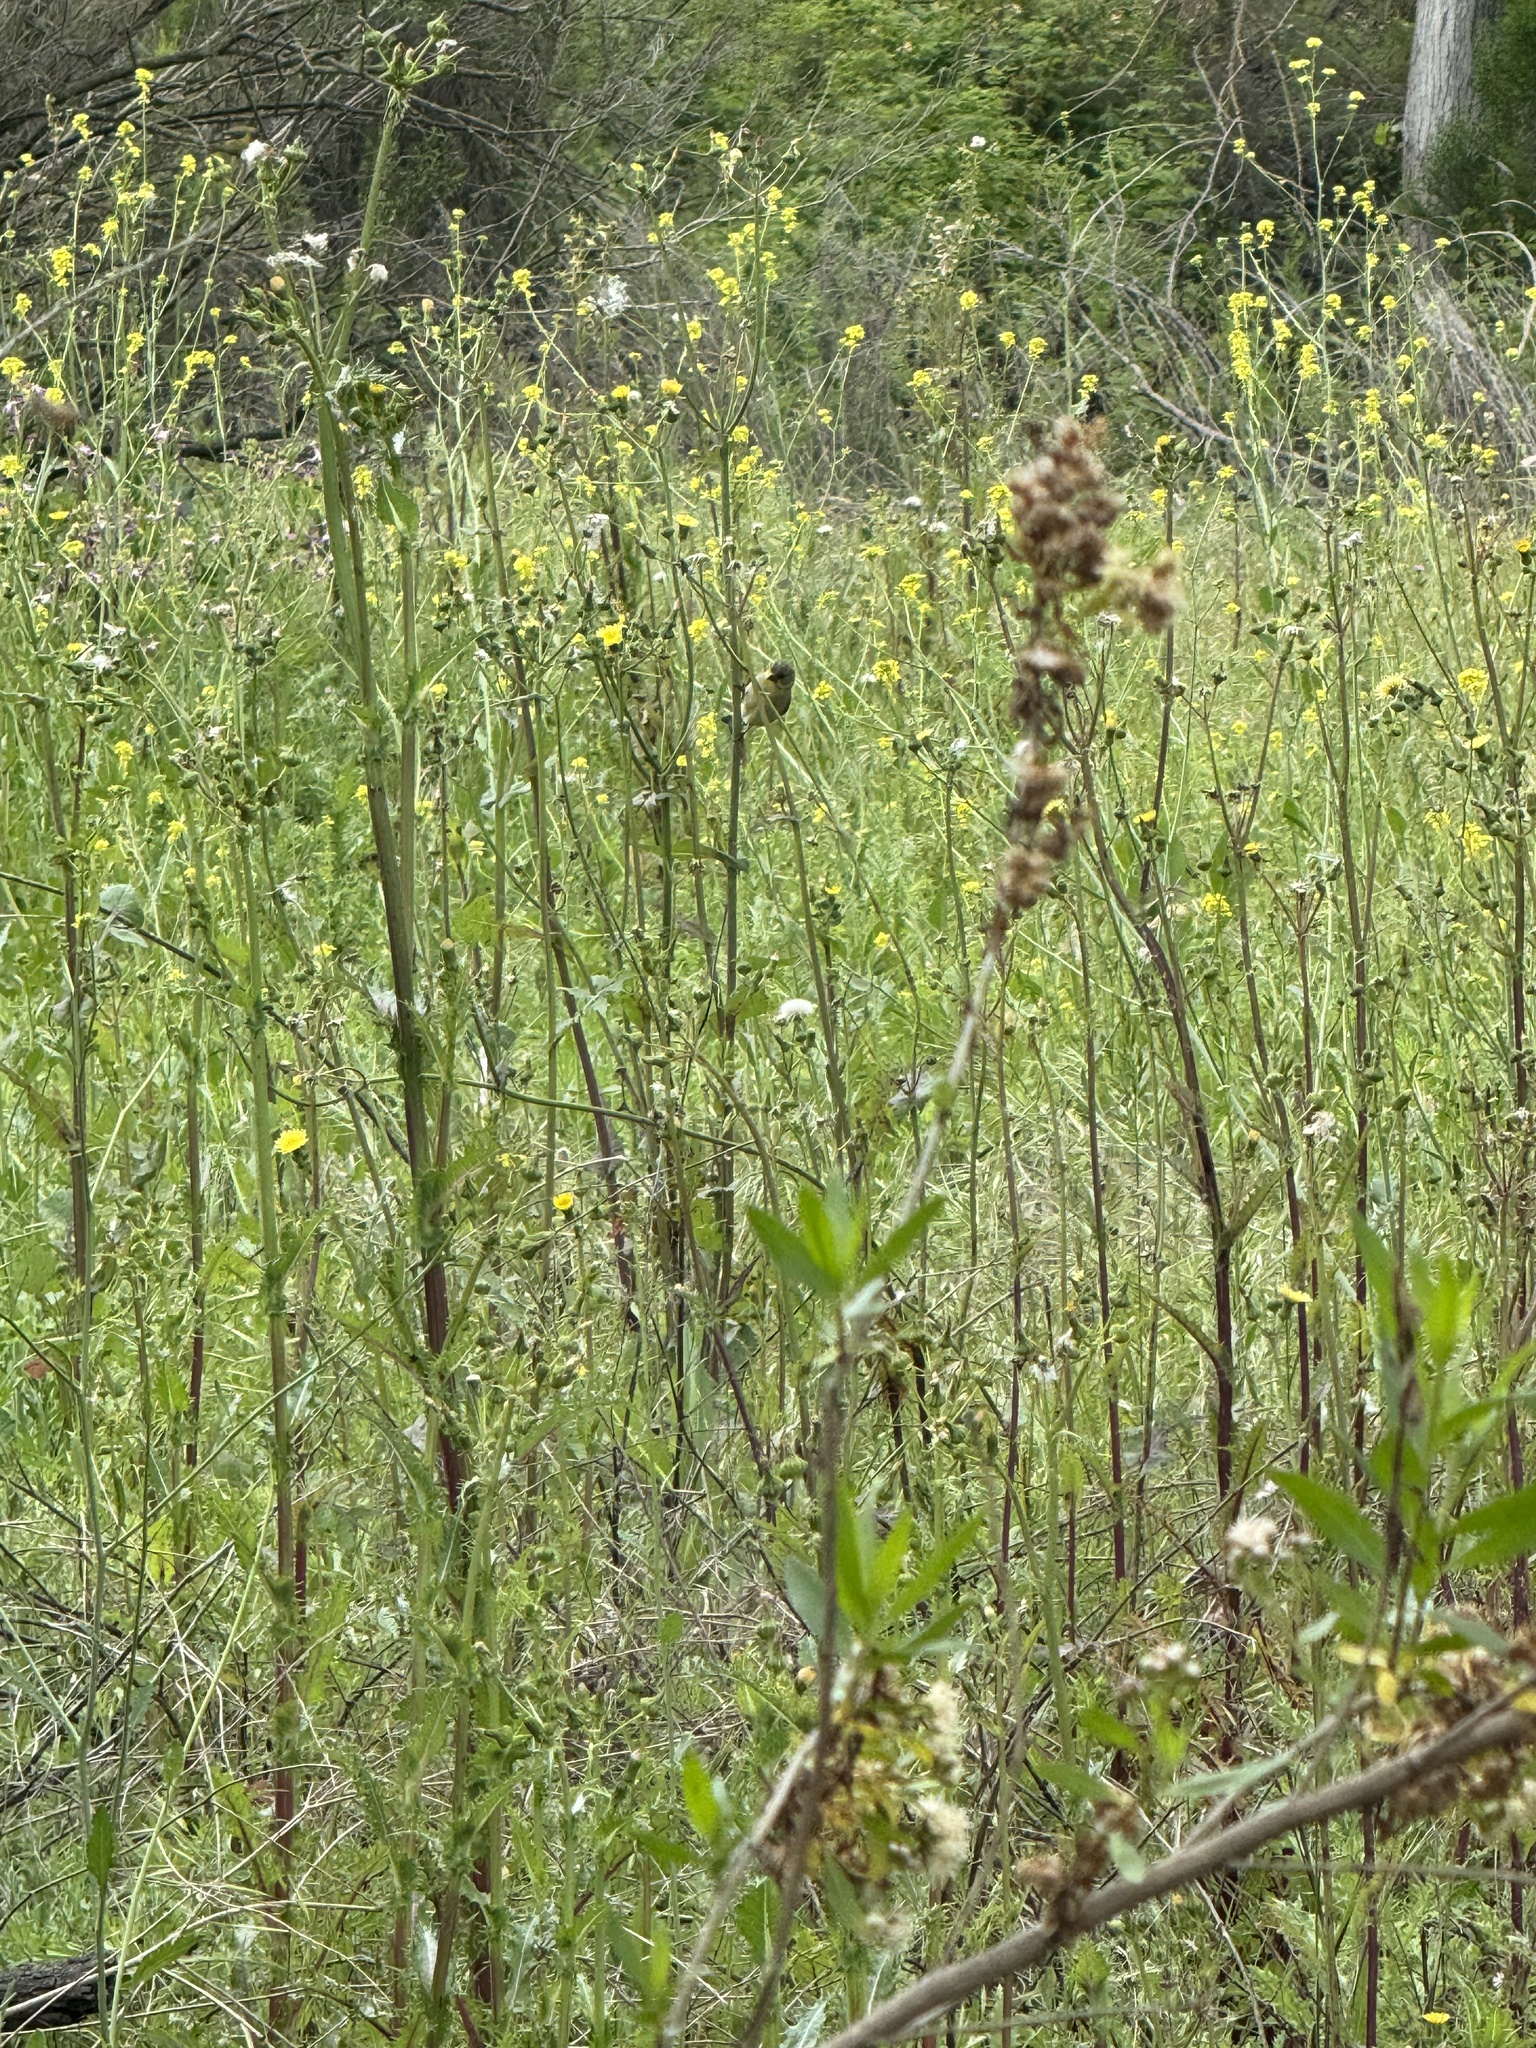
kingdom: Animalia
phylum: Chordata
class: Aves
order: Passeriformes
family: Fringillidae
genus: Spinus
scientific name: Spinus psaltria
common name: Lesser goldfinch
